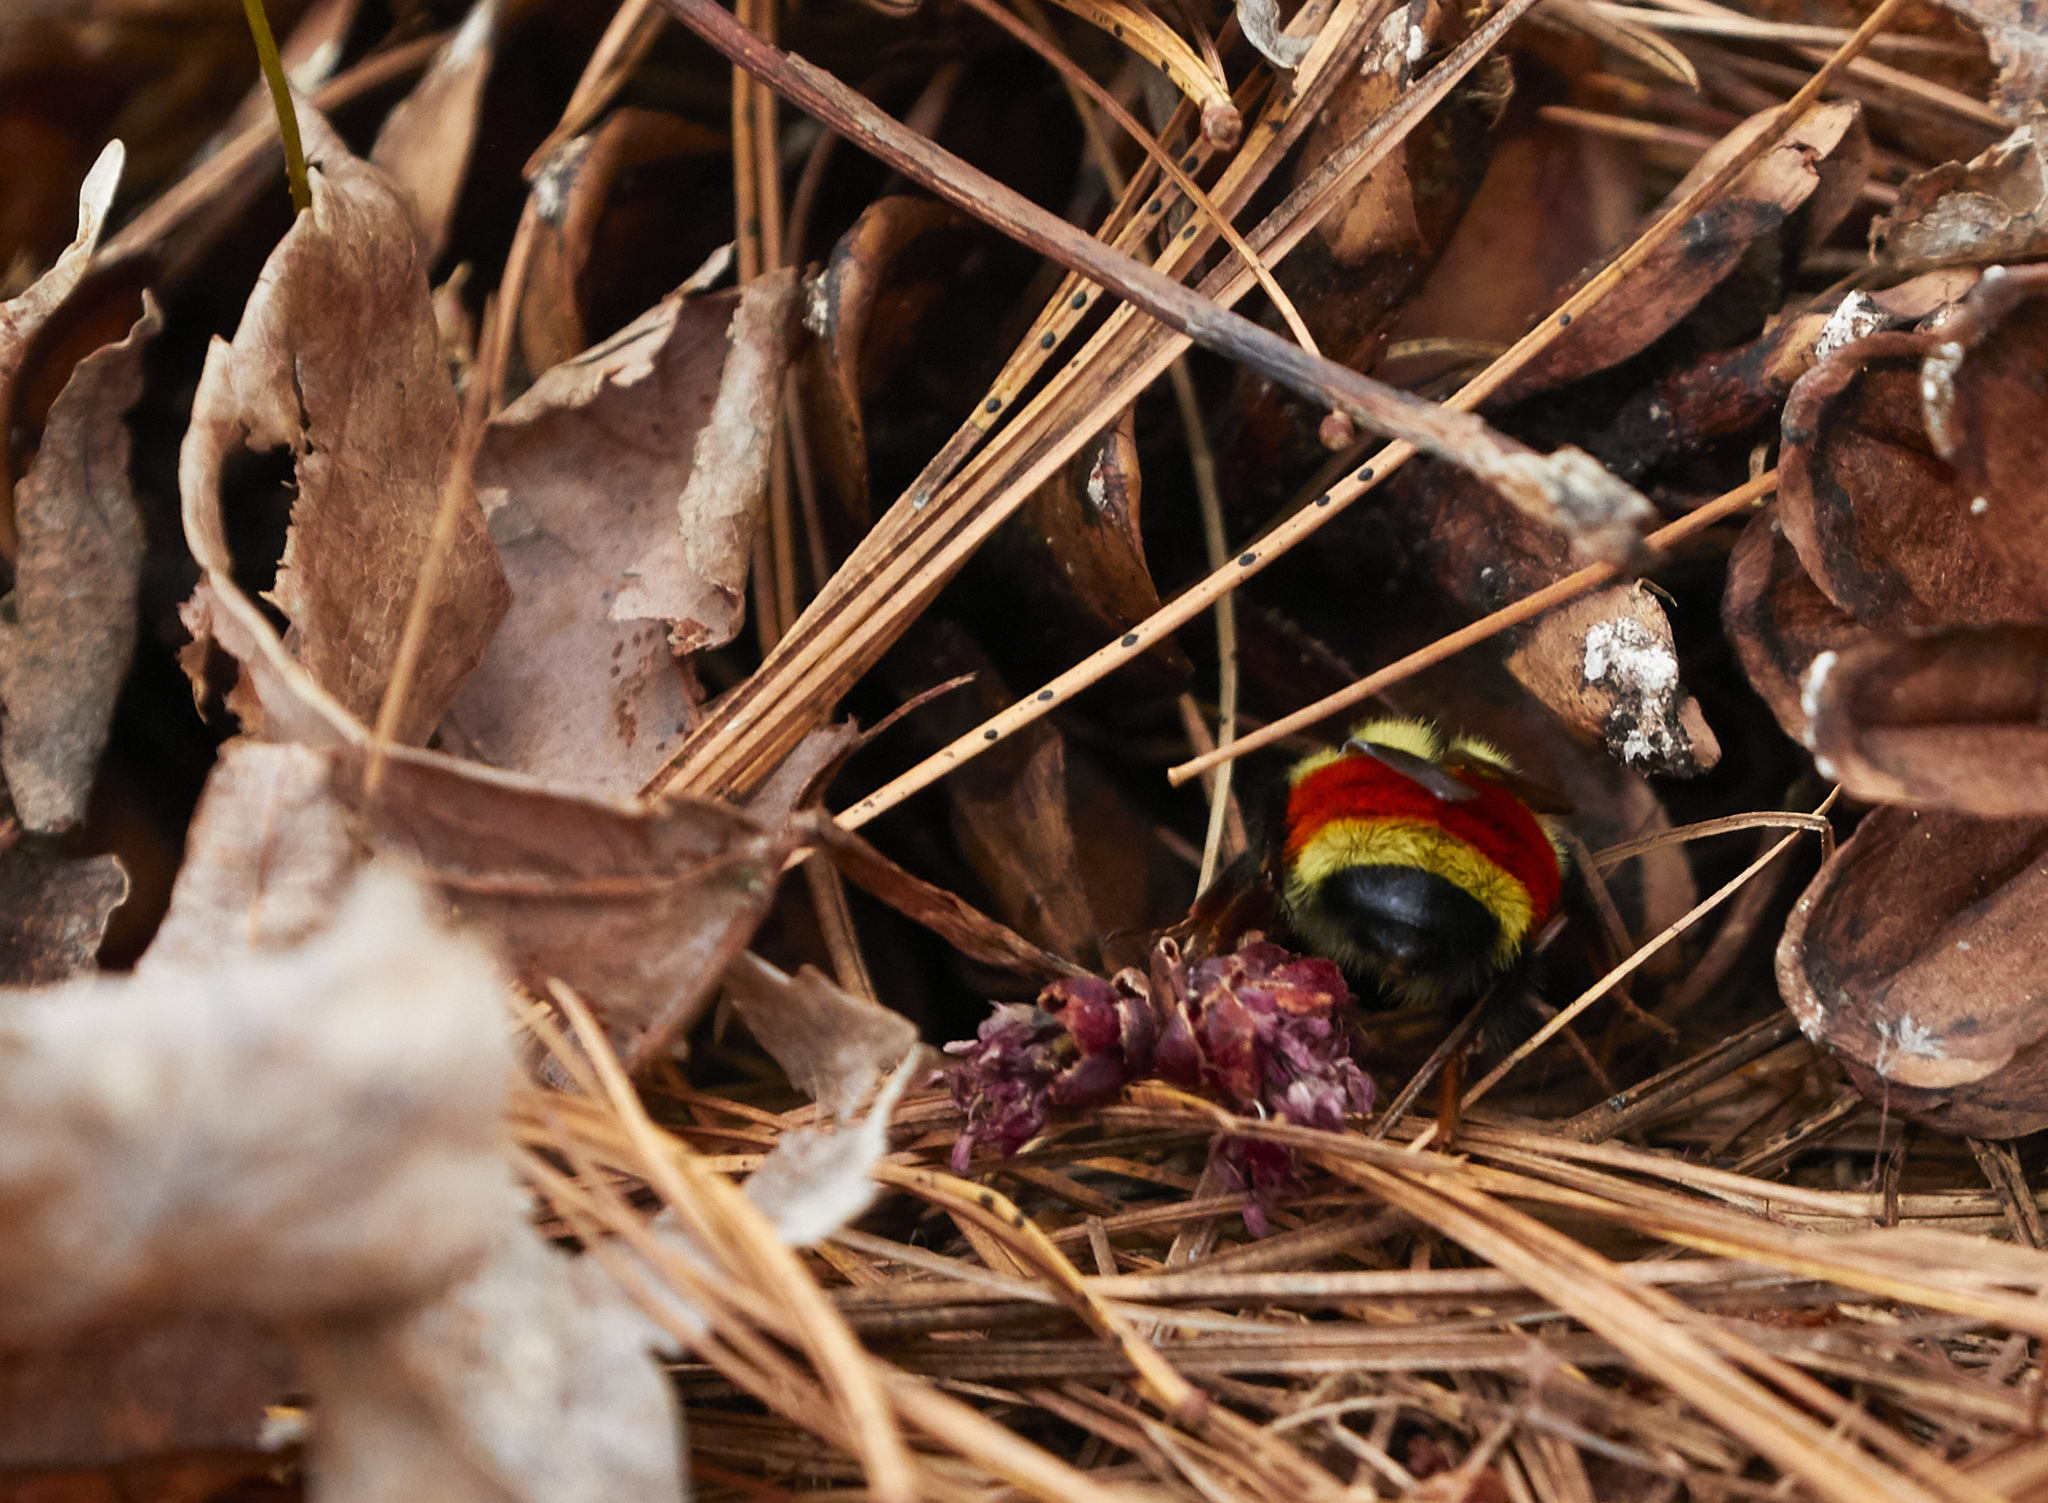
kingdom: Animalia
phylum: Arthropoda
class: Insecta
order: Hymenoptera
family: Apidae
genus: Bombus
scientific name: Bombus ternarius
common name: Tri-colored bumble bee
